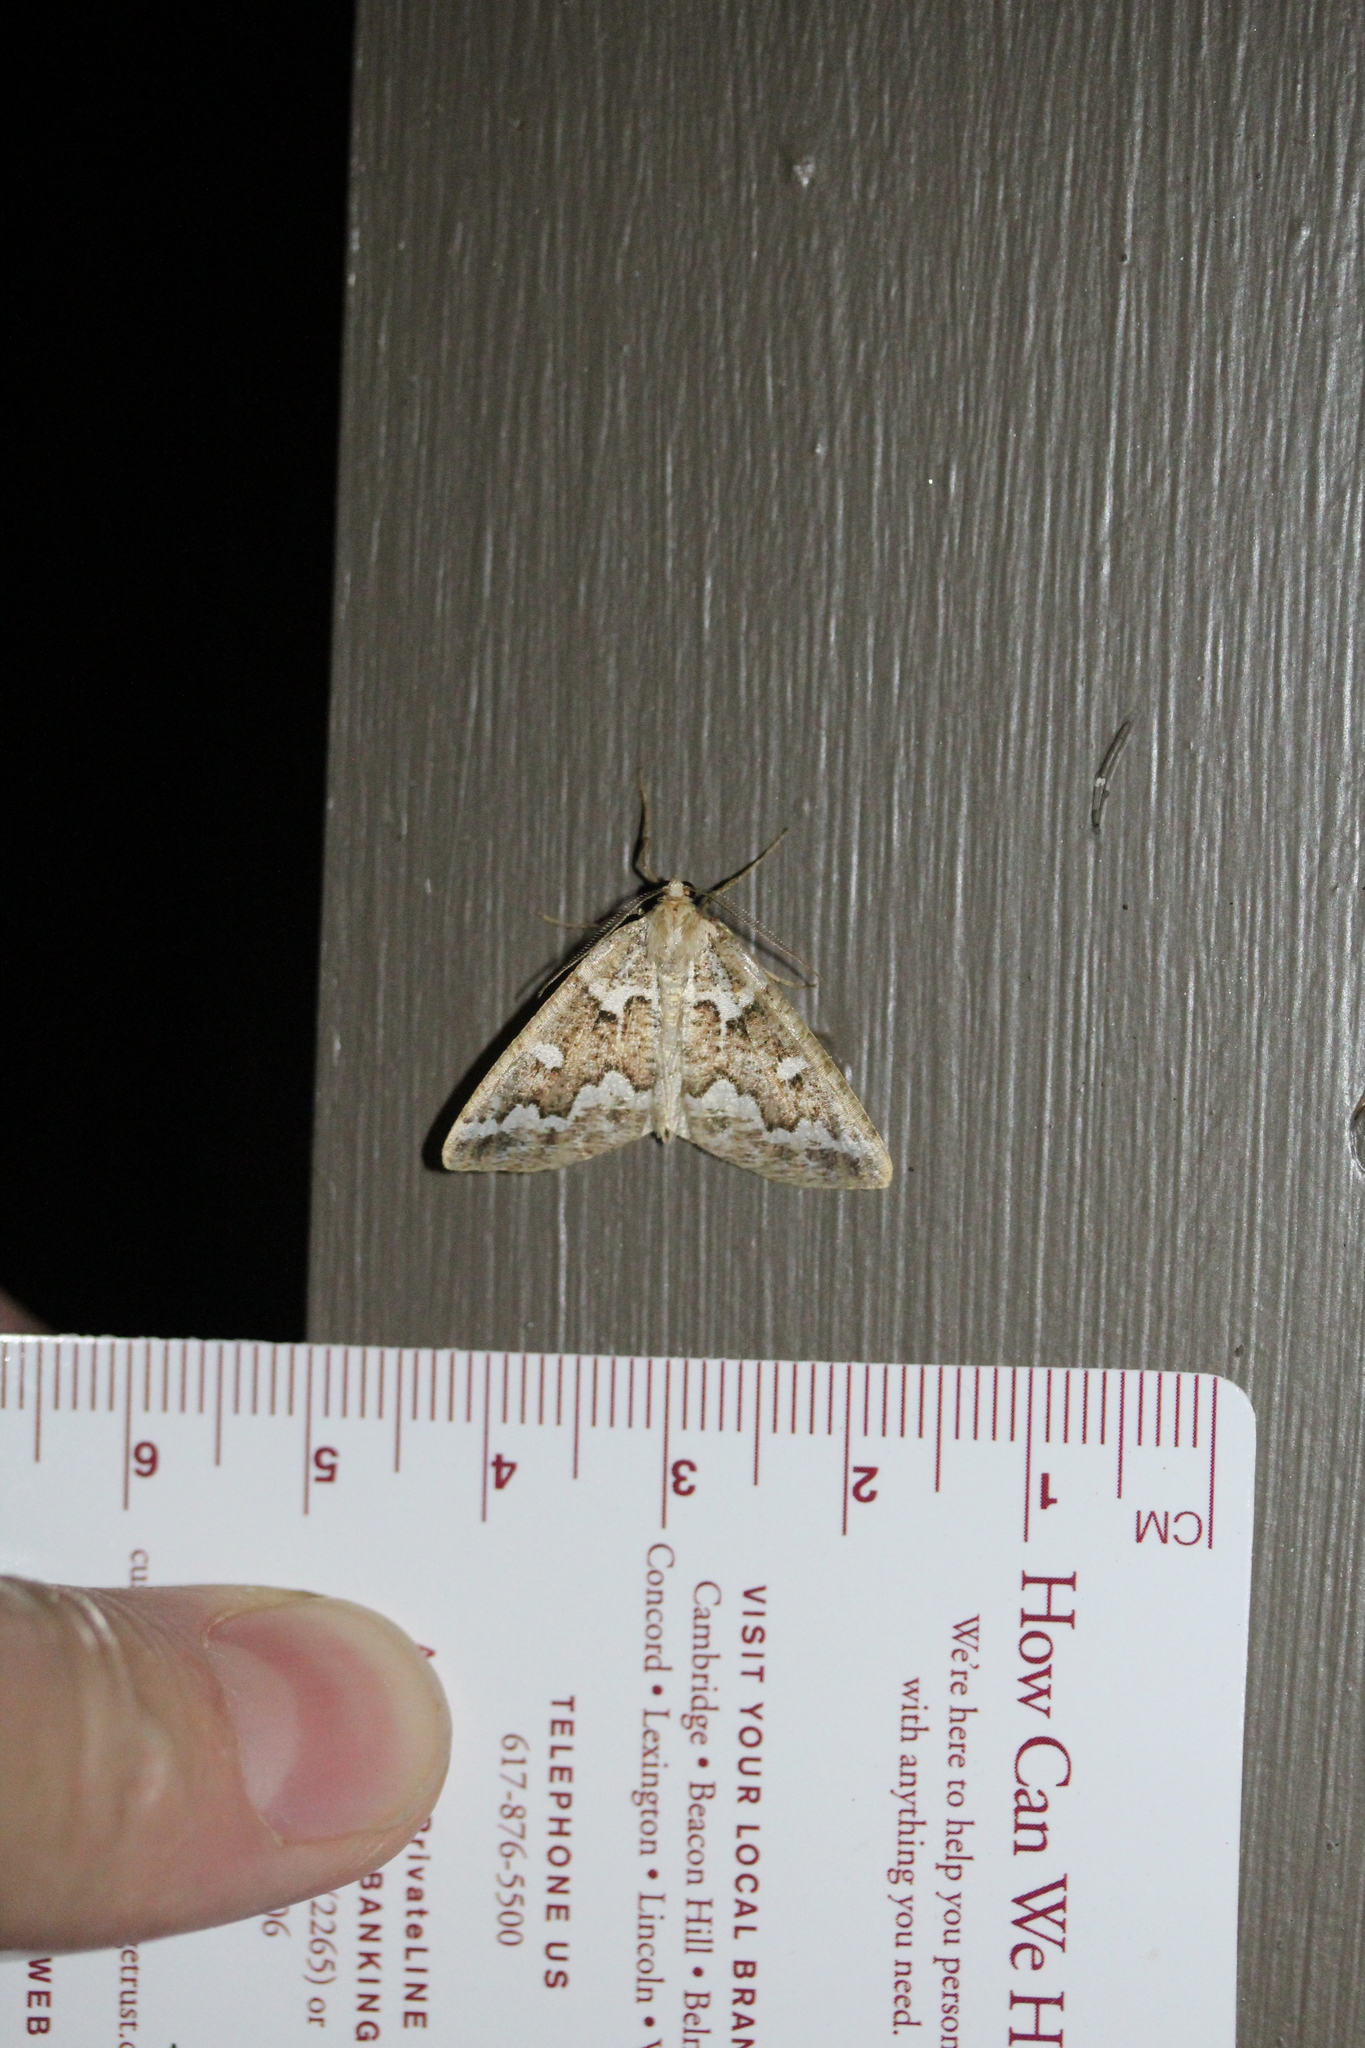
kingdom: Animalia
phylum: Arthropoda
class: Insecta
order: Lepidoptera
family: Geometridae
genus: Caripeta
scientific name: Caripeta divisata
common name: Gray spruce looper
